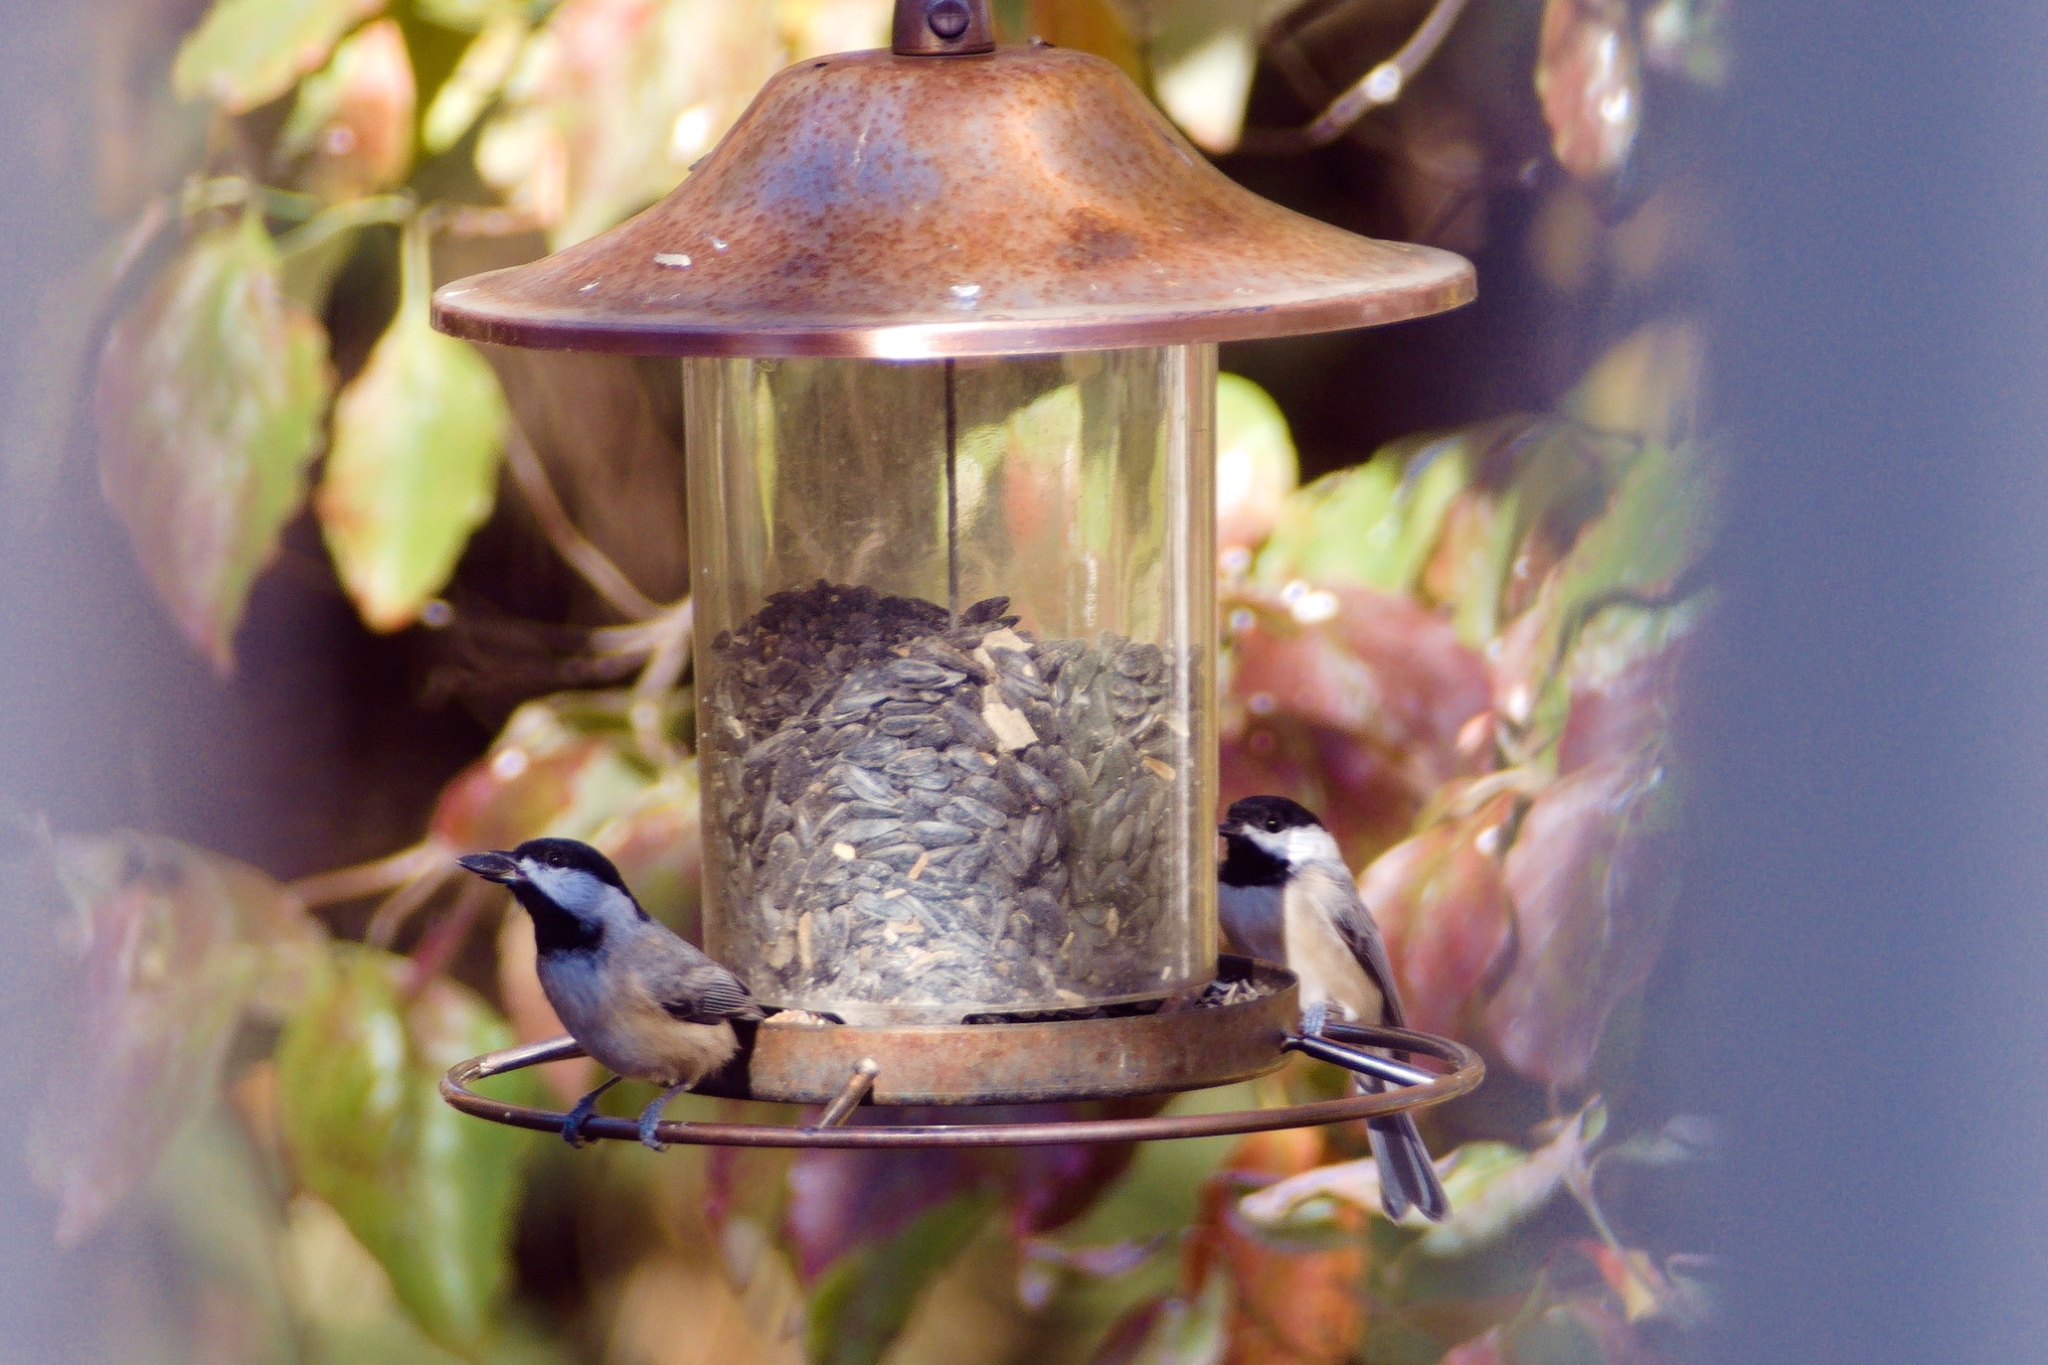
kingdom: Animalia
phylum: Chordata
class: Aves
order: Passeriformes
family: Paridae
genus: Poecile
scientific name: Poecile carolinensis
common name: Carolina chickadee
